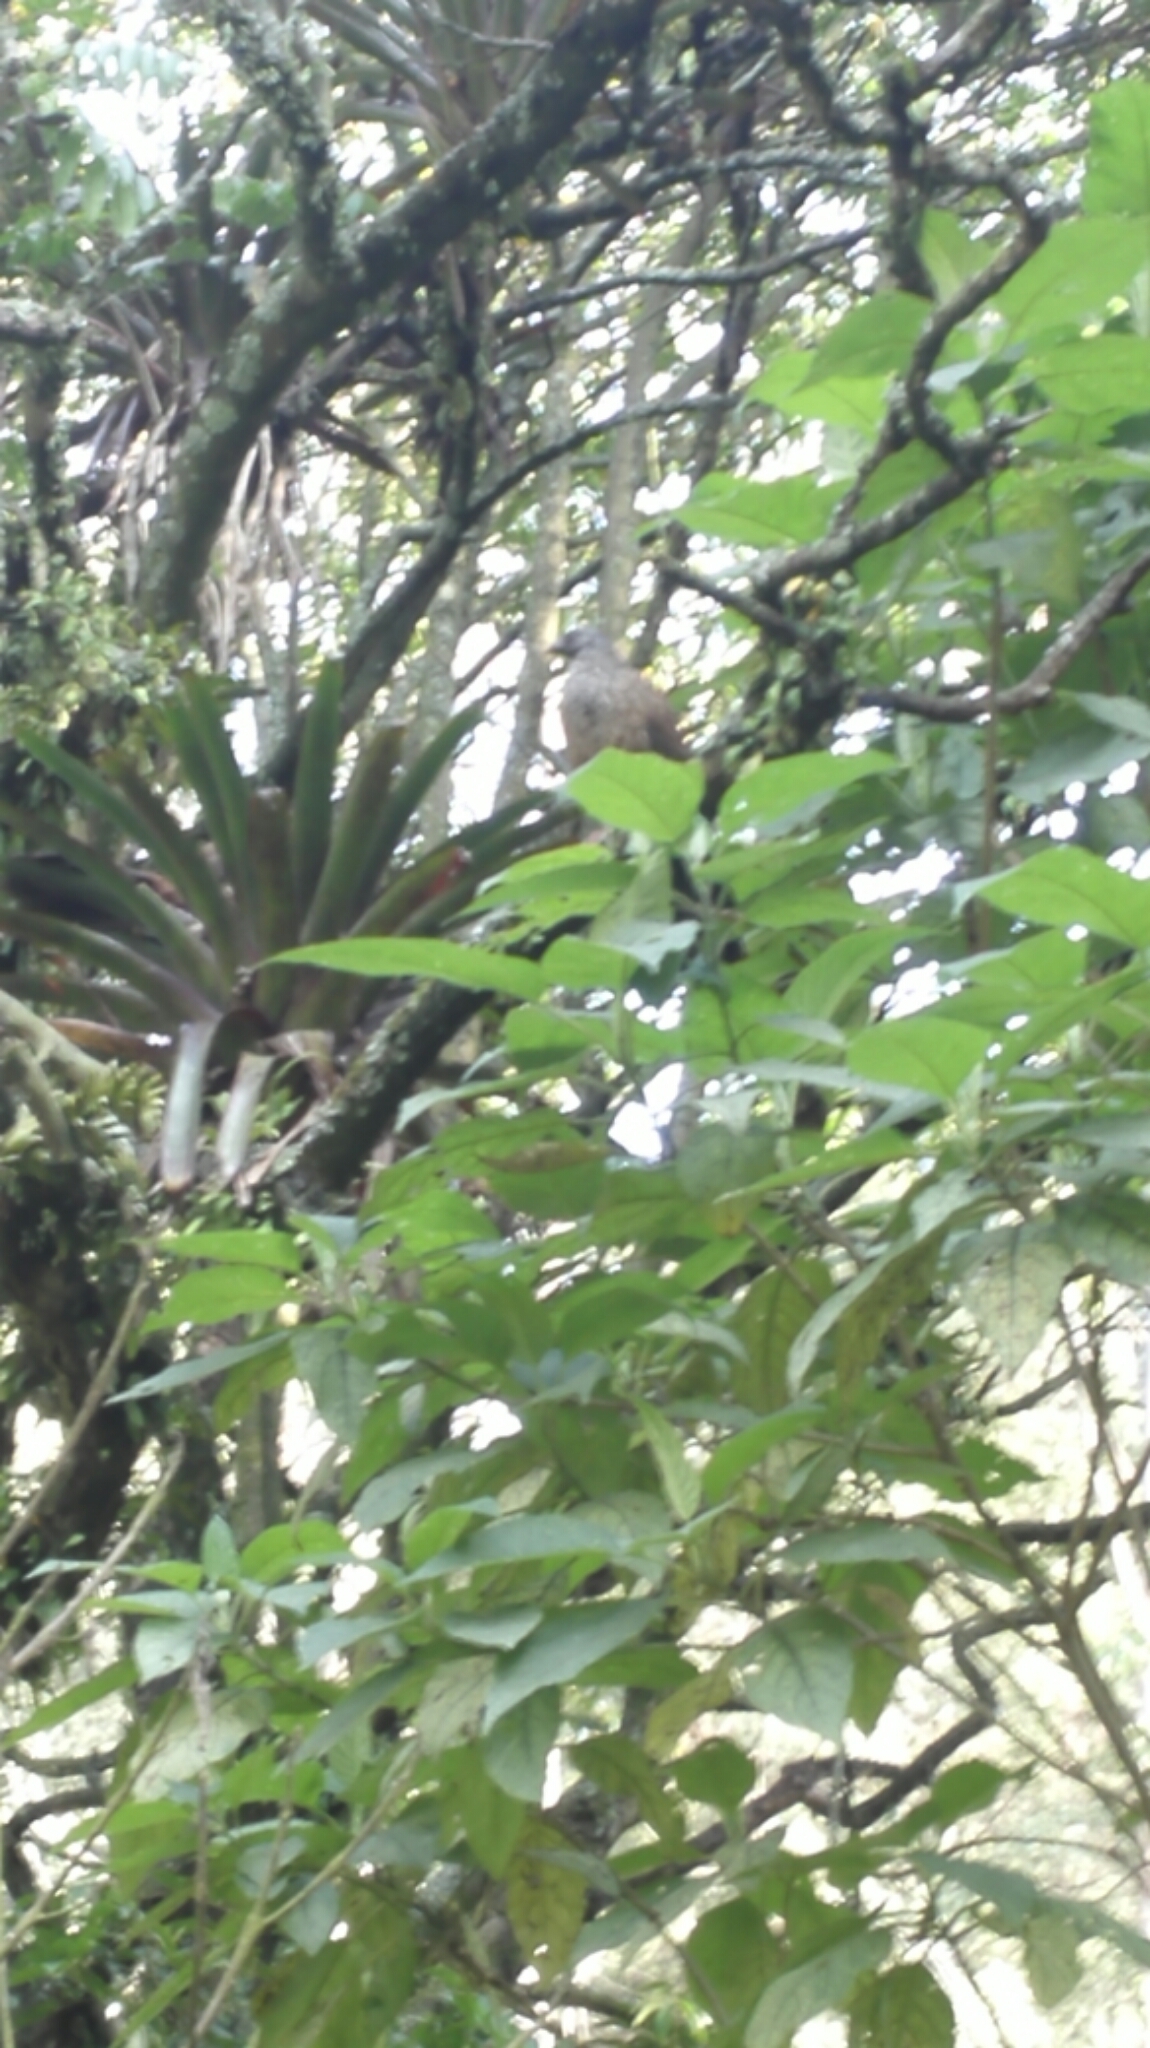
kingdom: Animalia
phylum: Chordata
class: Aves
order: Galliformes
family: Cracidae
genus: Penelope
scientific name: Penelope montagnii
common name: Andean guan
